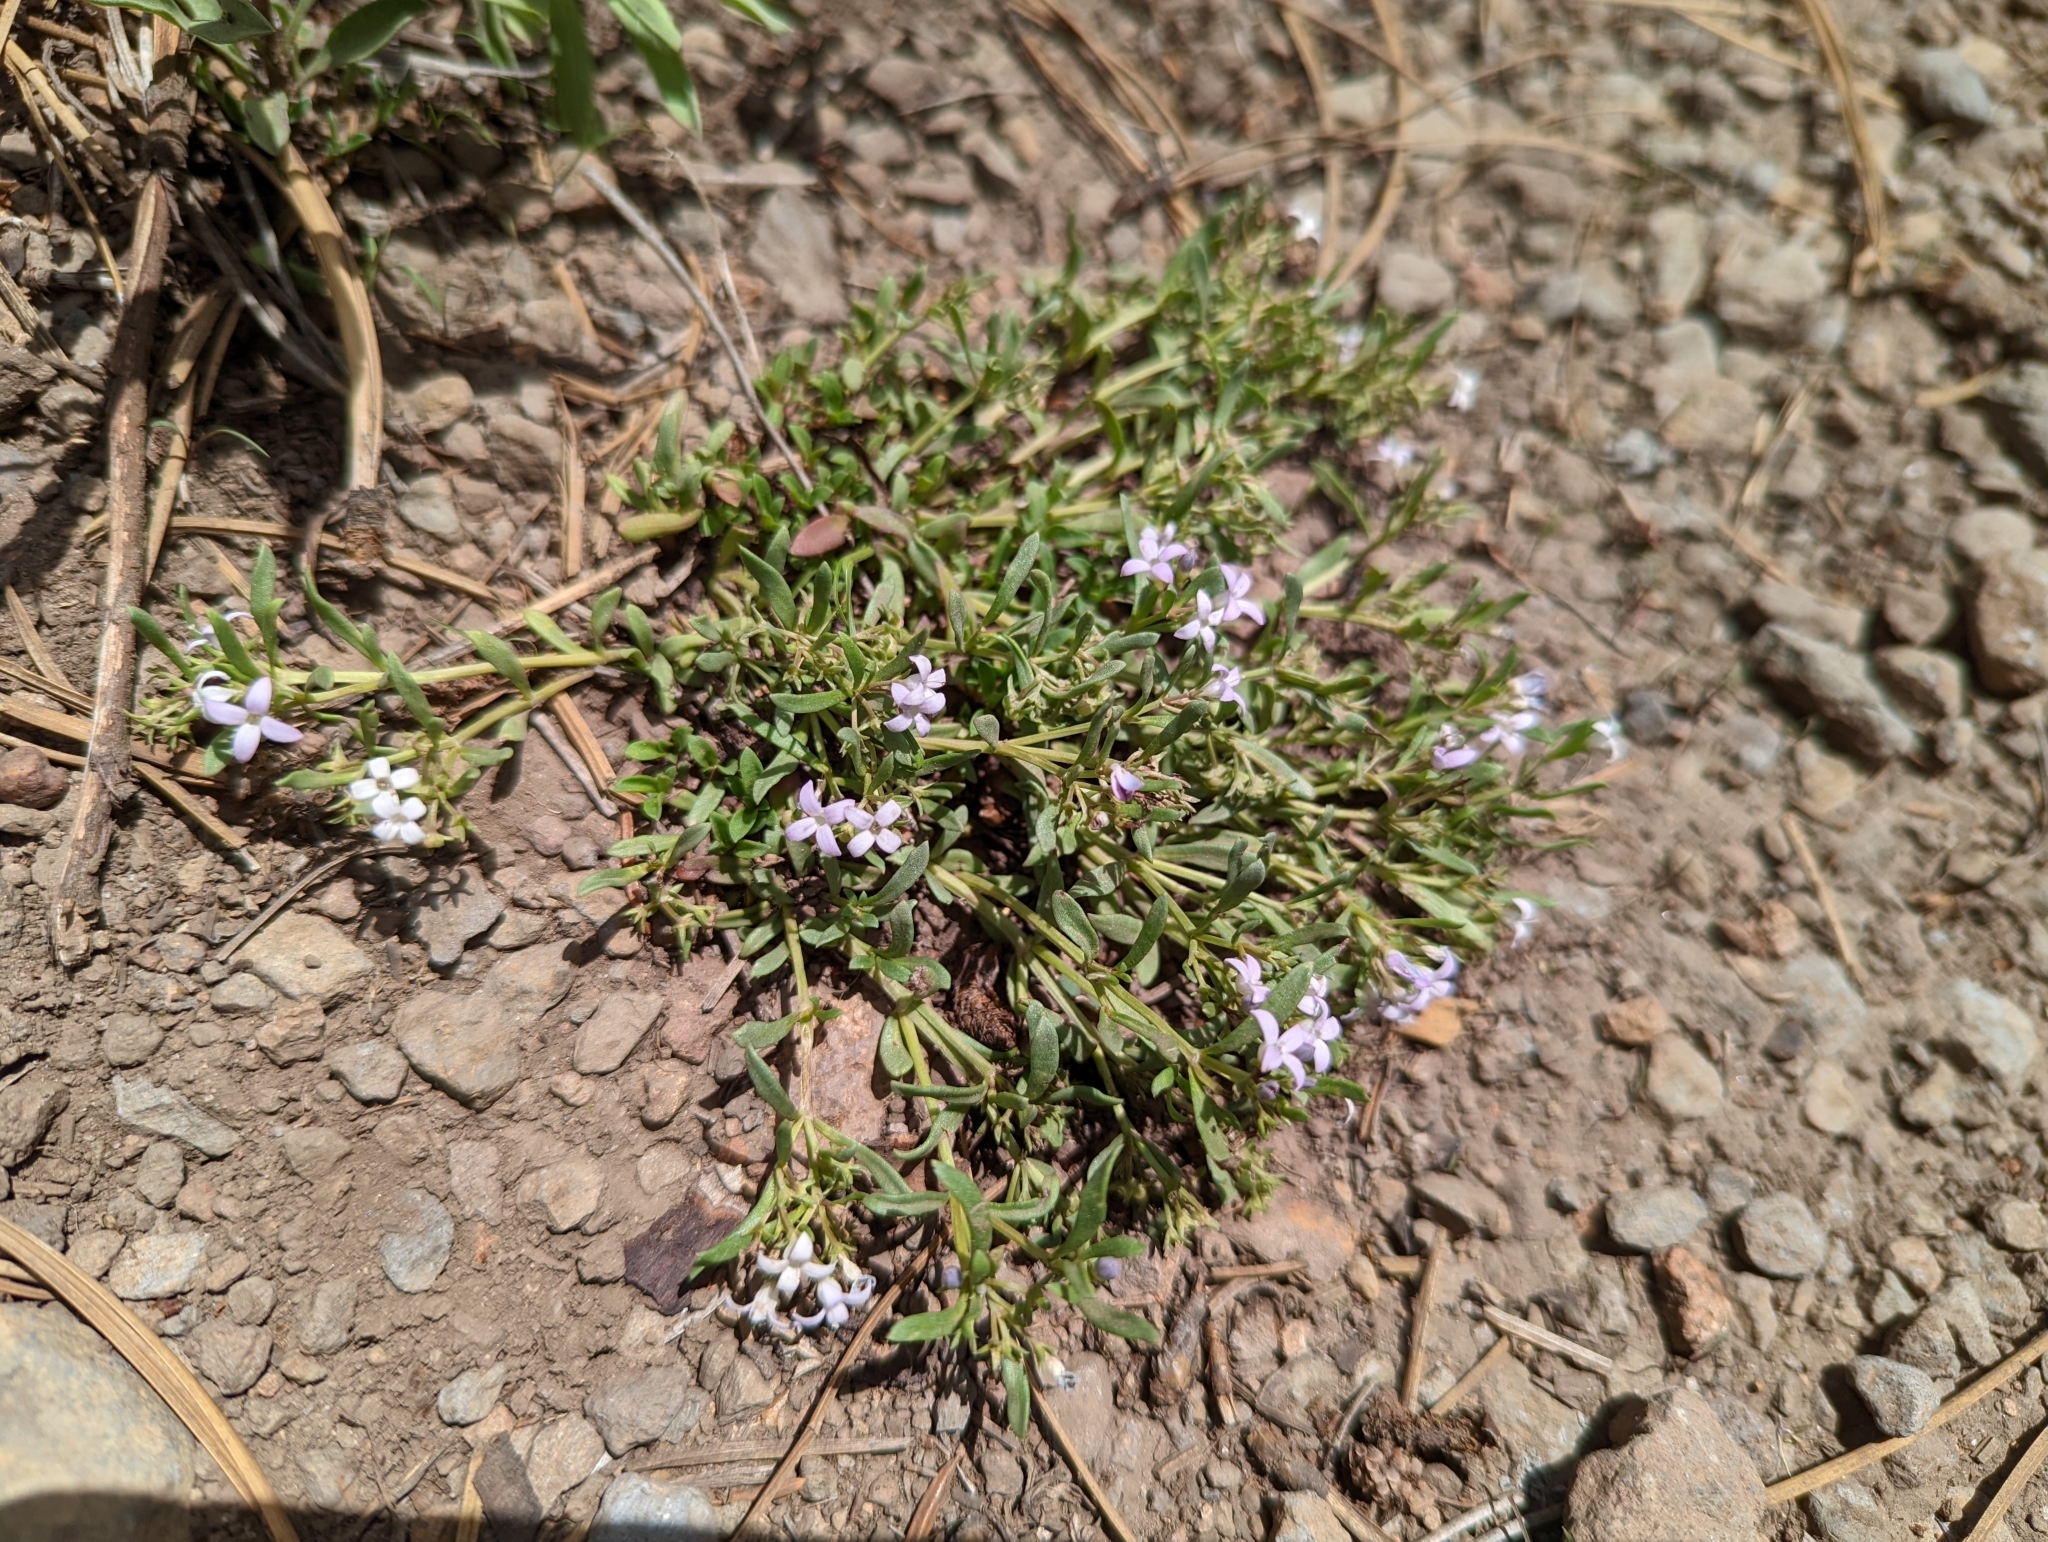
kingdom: Plantae
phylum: Tracheophyta
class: Magnoliopsida
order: Gentianales
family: Rubiaceae
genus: Houstonia
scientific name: Houstonia wrightii
